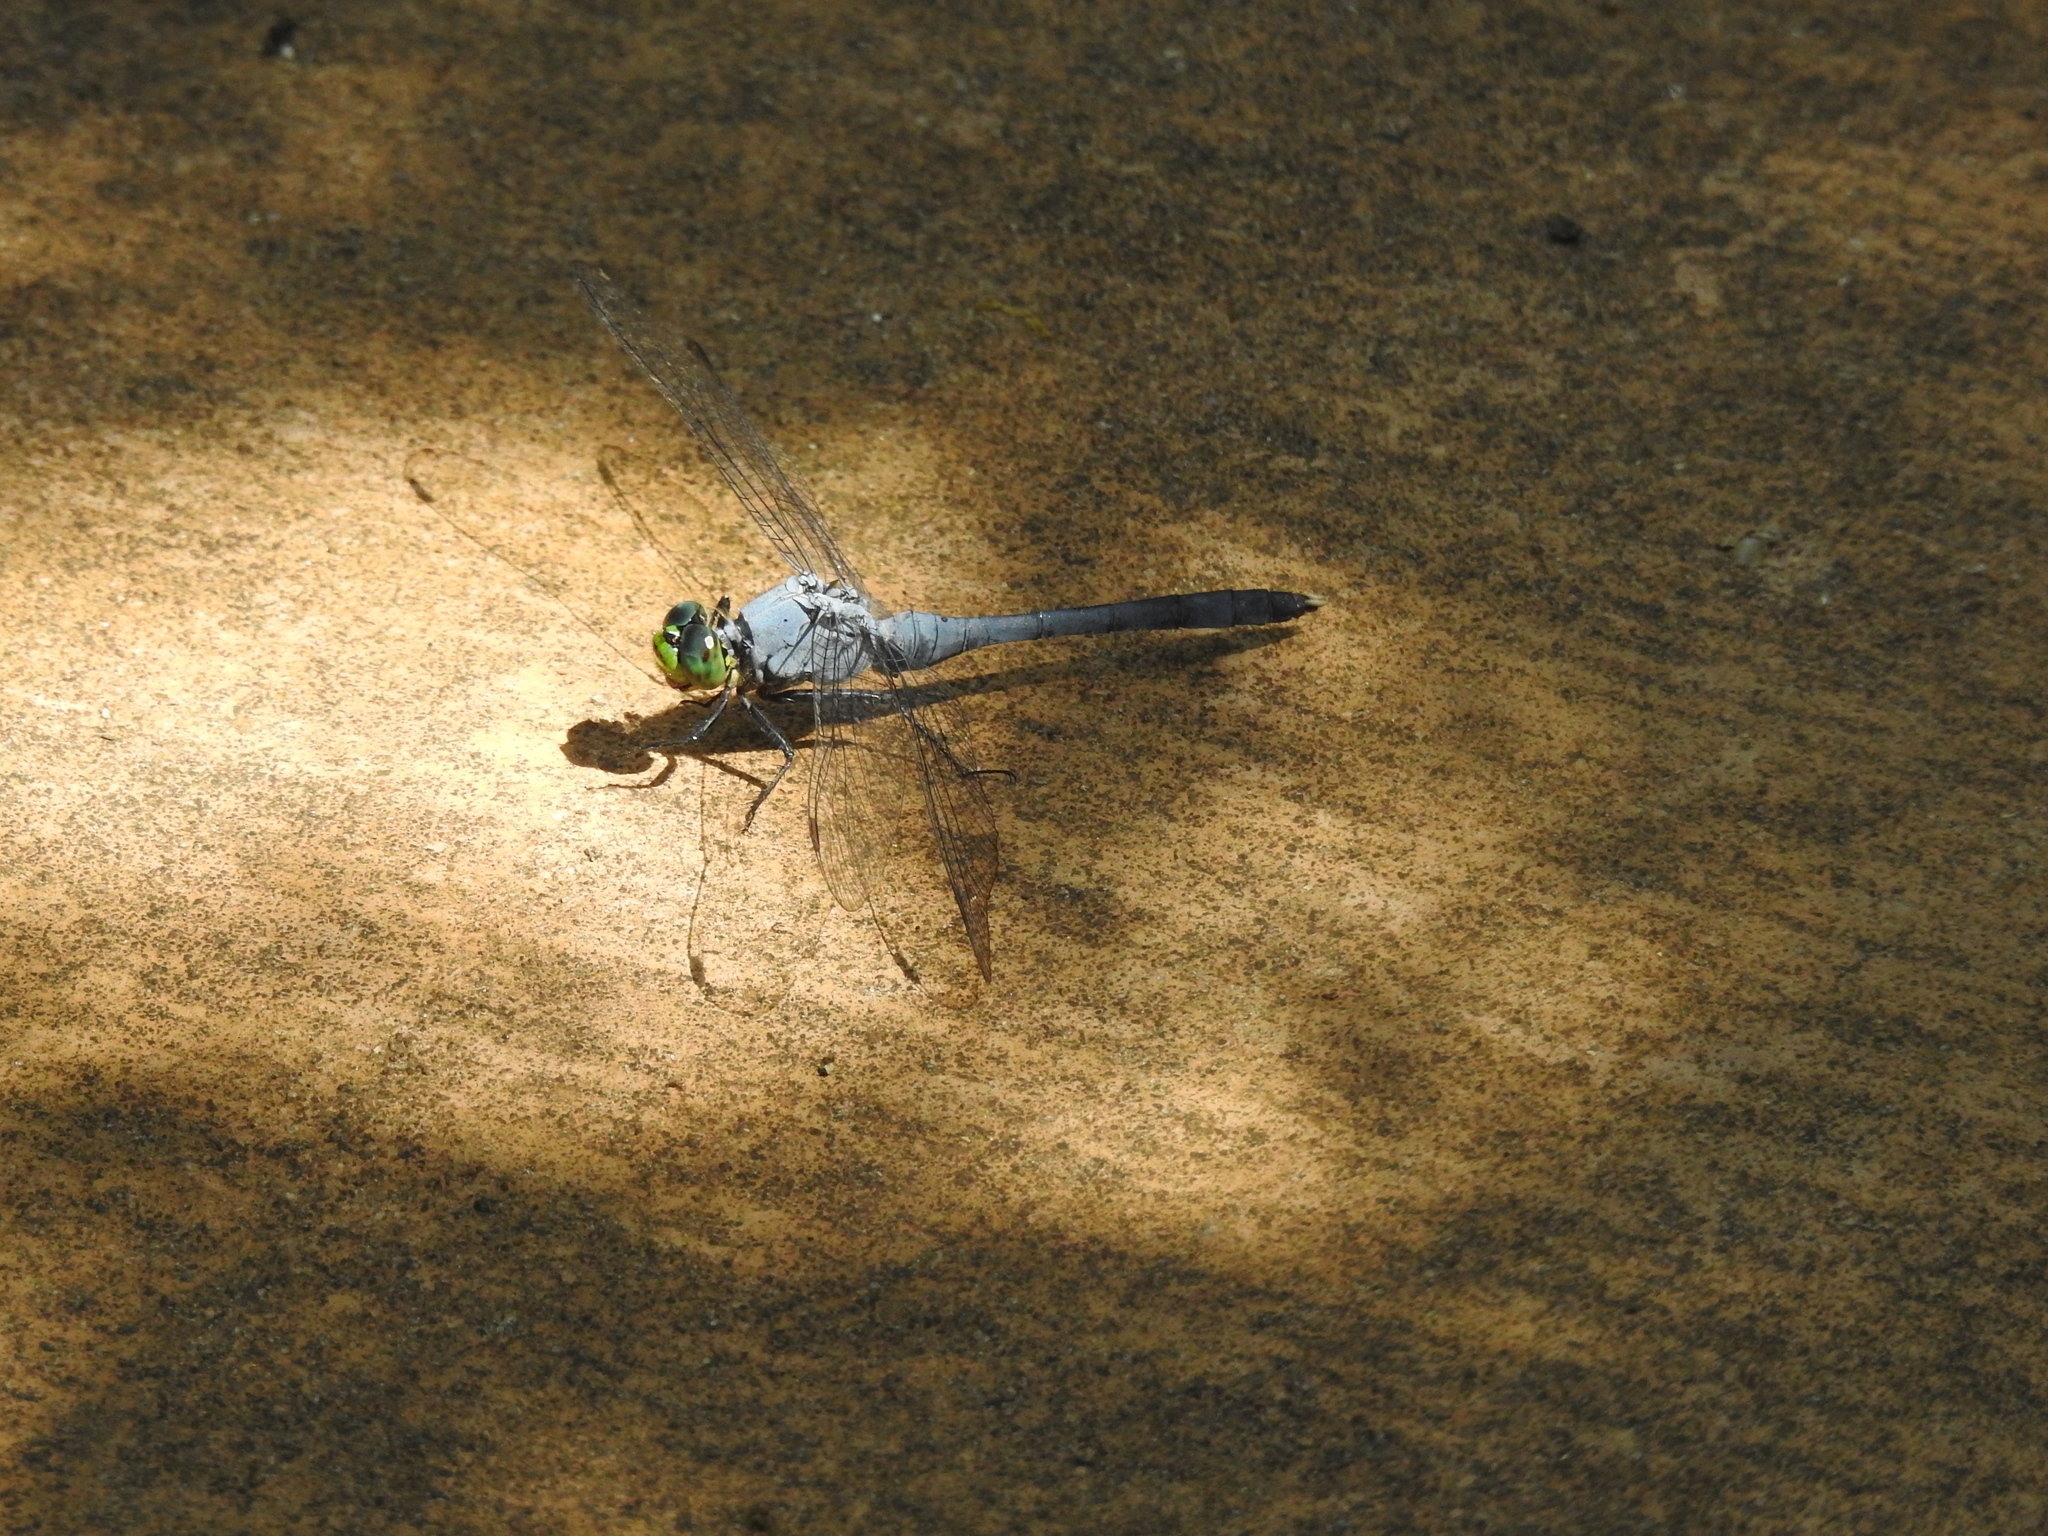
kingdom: Animalia
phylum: Arthropoda
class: Insecta
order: Odonata
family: Libellulidae
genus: Erythemis
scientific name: Erythemis simplicicollis
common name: Eastern pondhawk
